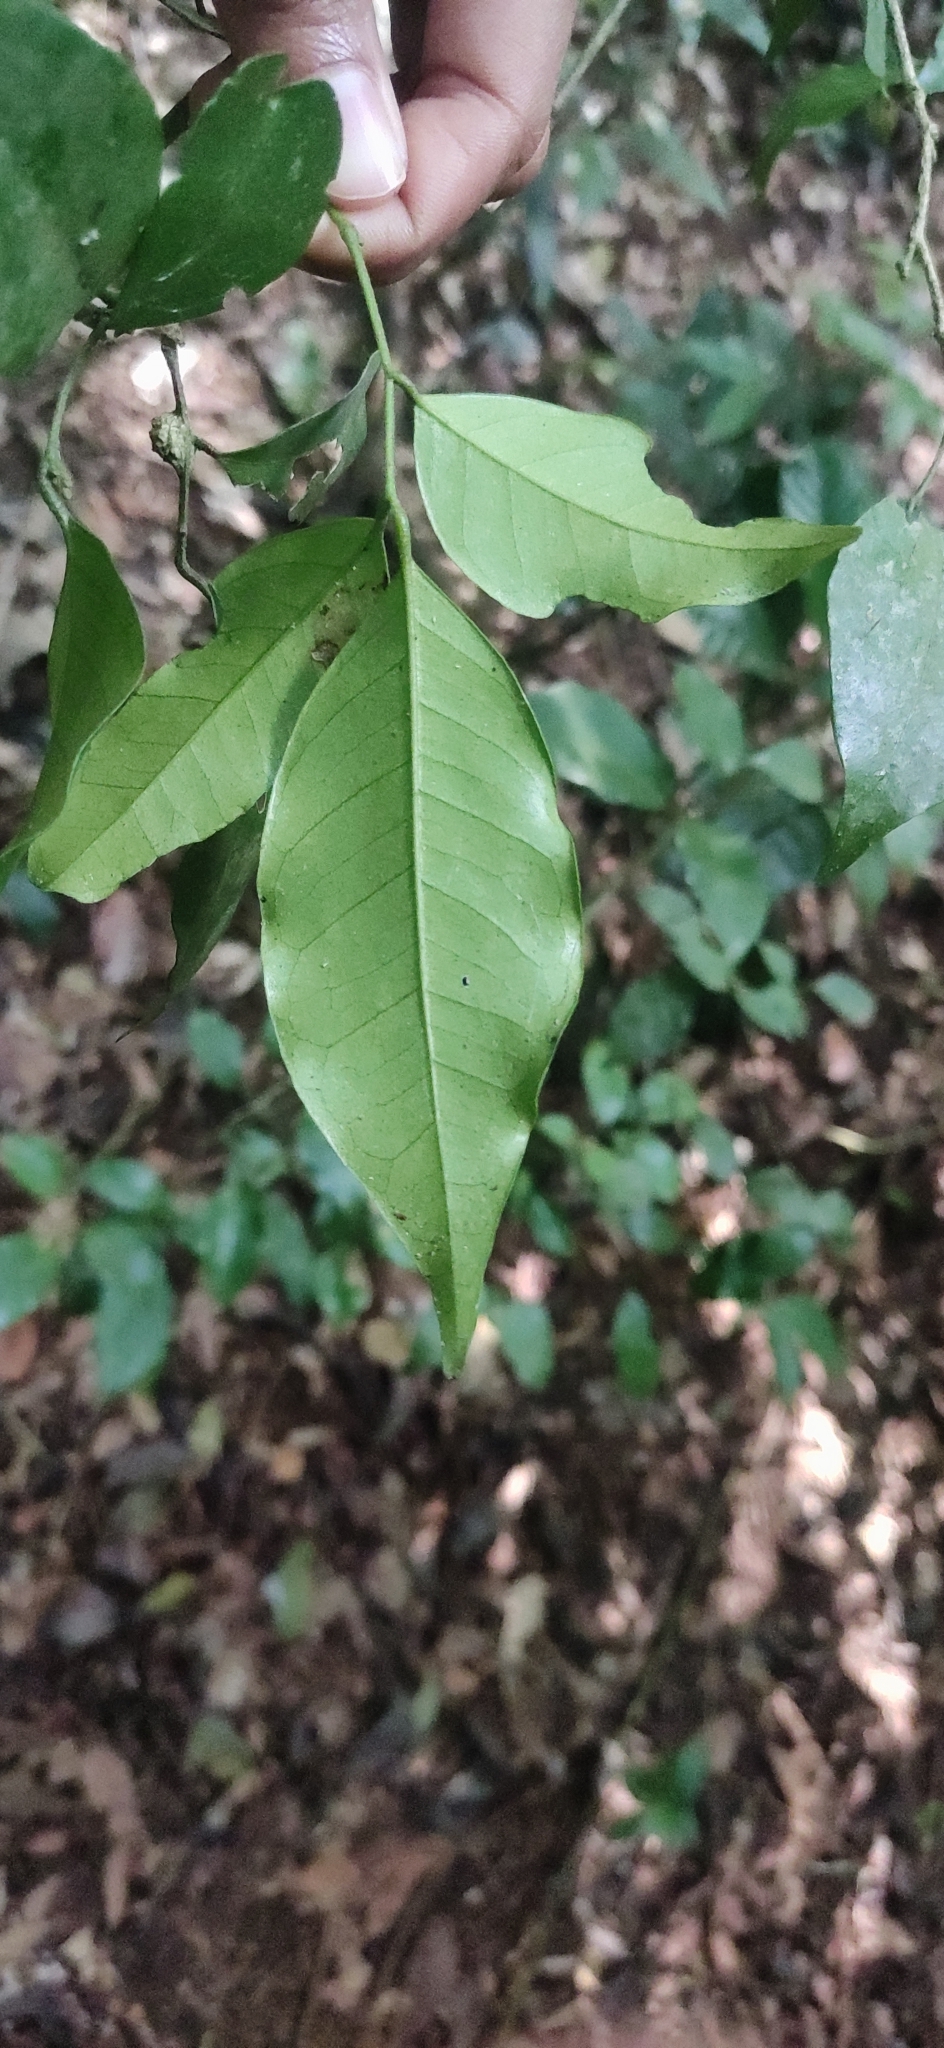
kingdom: Plantae
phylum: Tracheophyta
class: Magnoliopsida
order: Sapindales
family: Rutaceae
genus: Murraya
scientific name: Murraya paniculata
